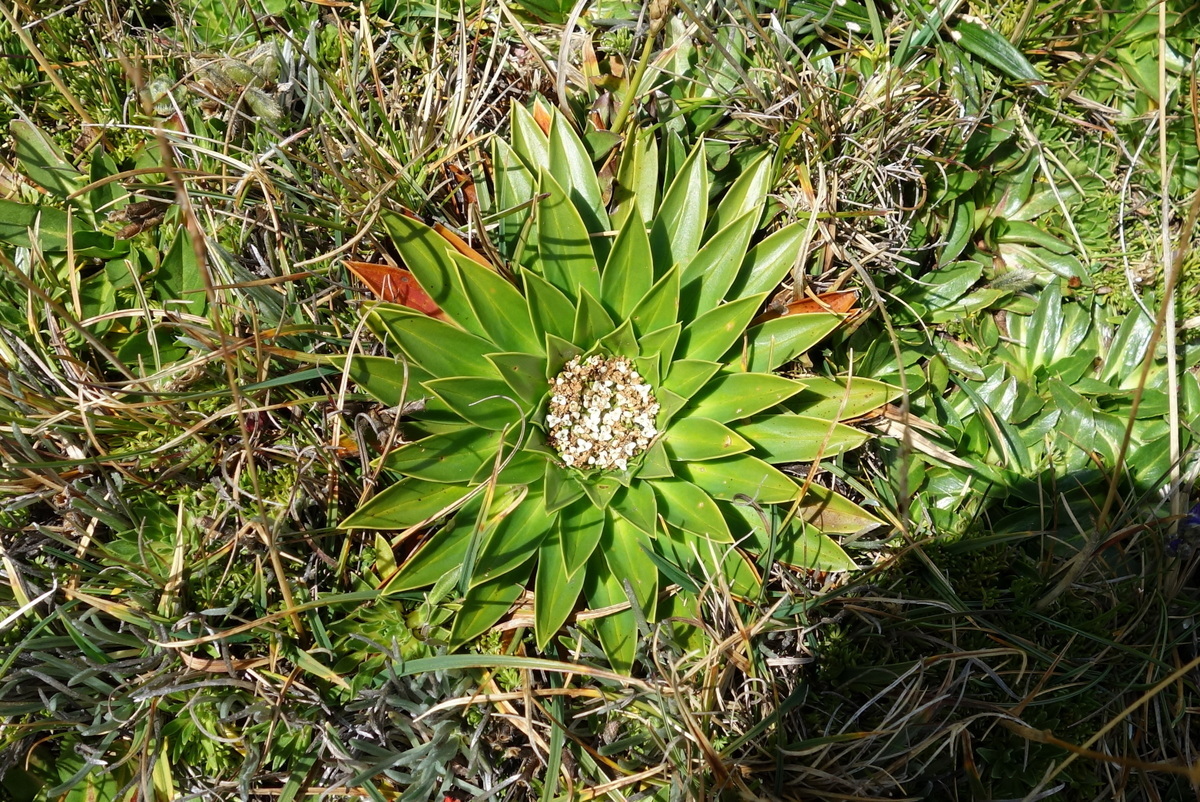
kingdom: Plantae
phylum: Tracheophyta
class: Magnoliopsida
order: Dipsacales
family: Caprifoliaceae
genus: Valeriana
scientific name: Valeriana rigida
